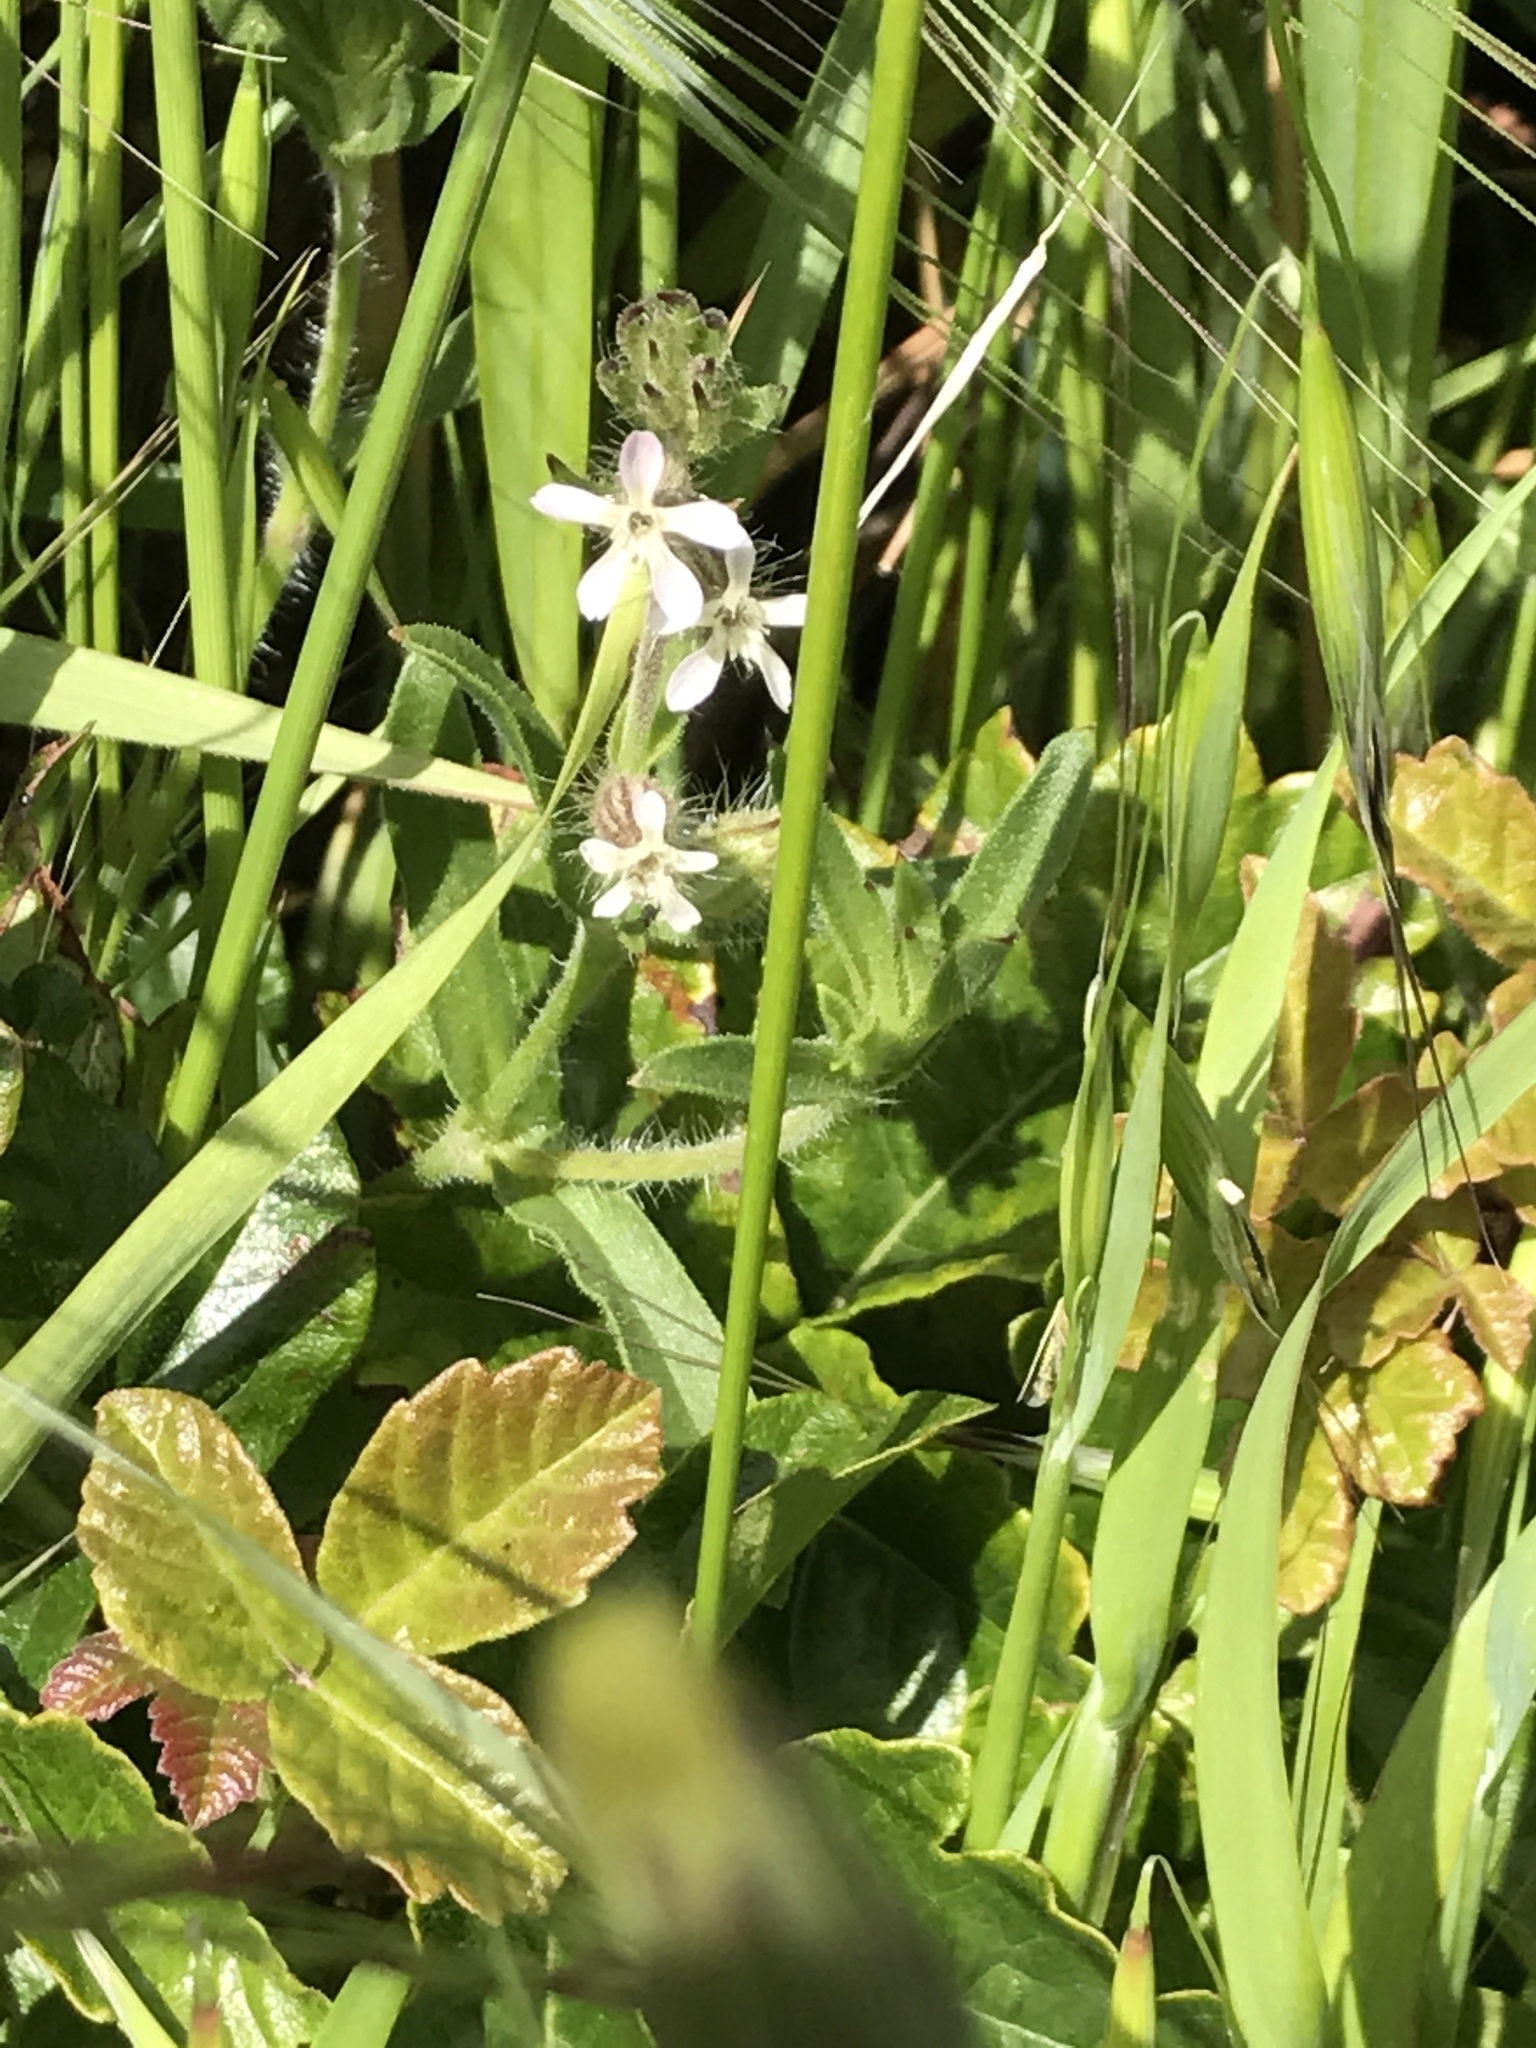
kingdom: Plantae
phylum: Tracheophyta
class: Magnoliopsida
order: Caryophyllales
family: Caryophyllaceae
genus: Silene
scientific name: Silene gallica
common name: Small-flowered catchfly
